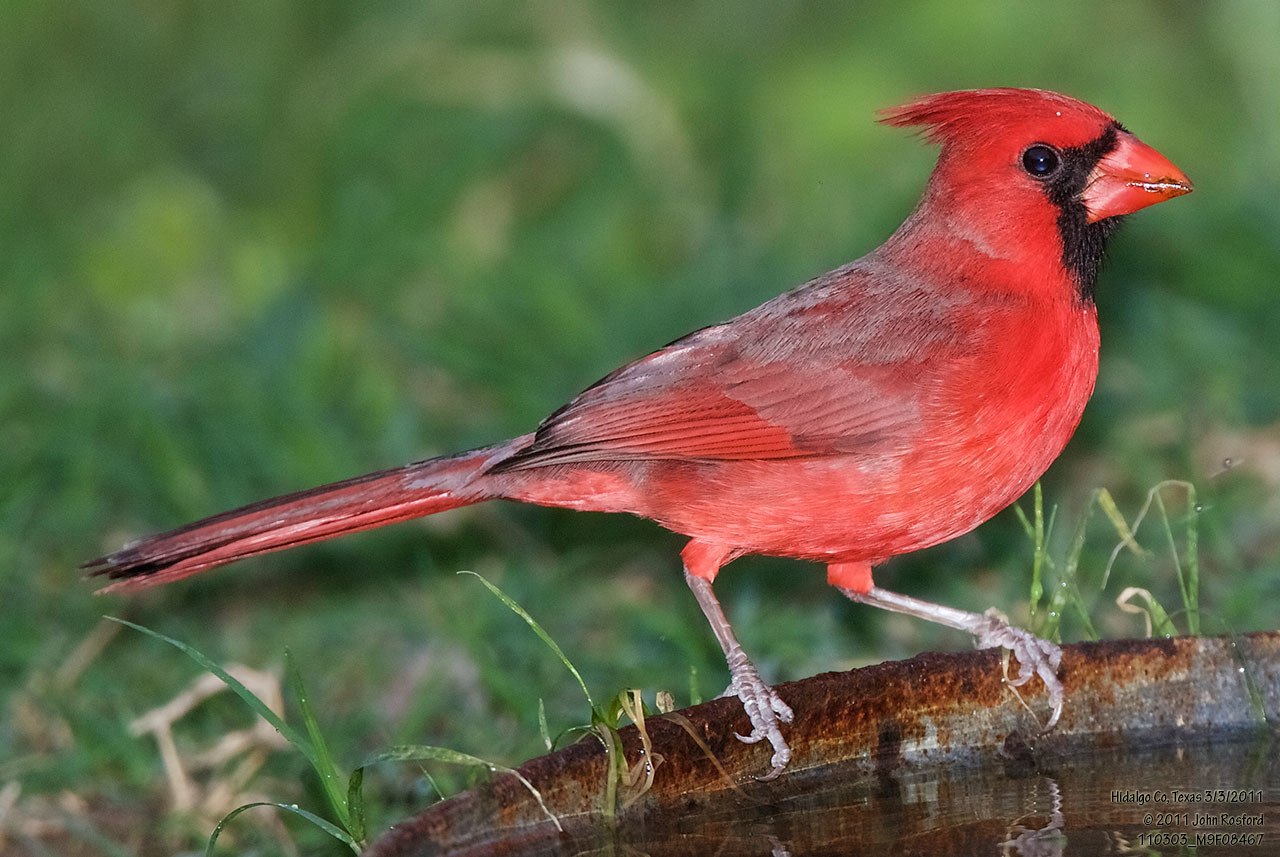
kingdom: Animalia
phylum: Chordata
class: Aves
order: Passeriformes
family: Cardinalidae
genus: Cardinalis
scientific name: Cardinalis cardinalis
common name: Northern cardinal
